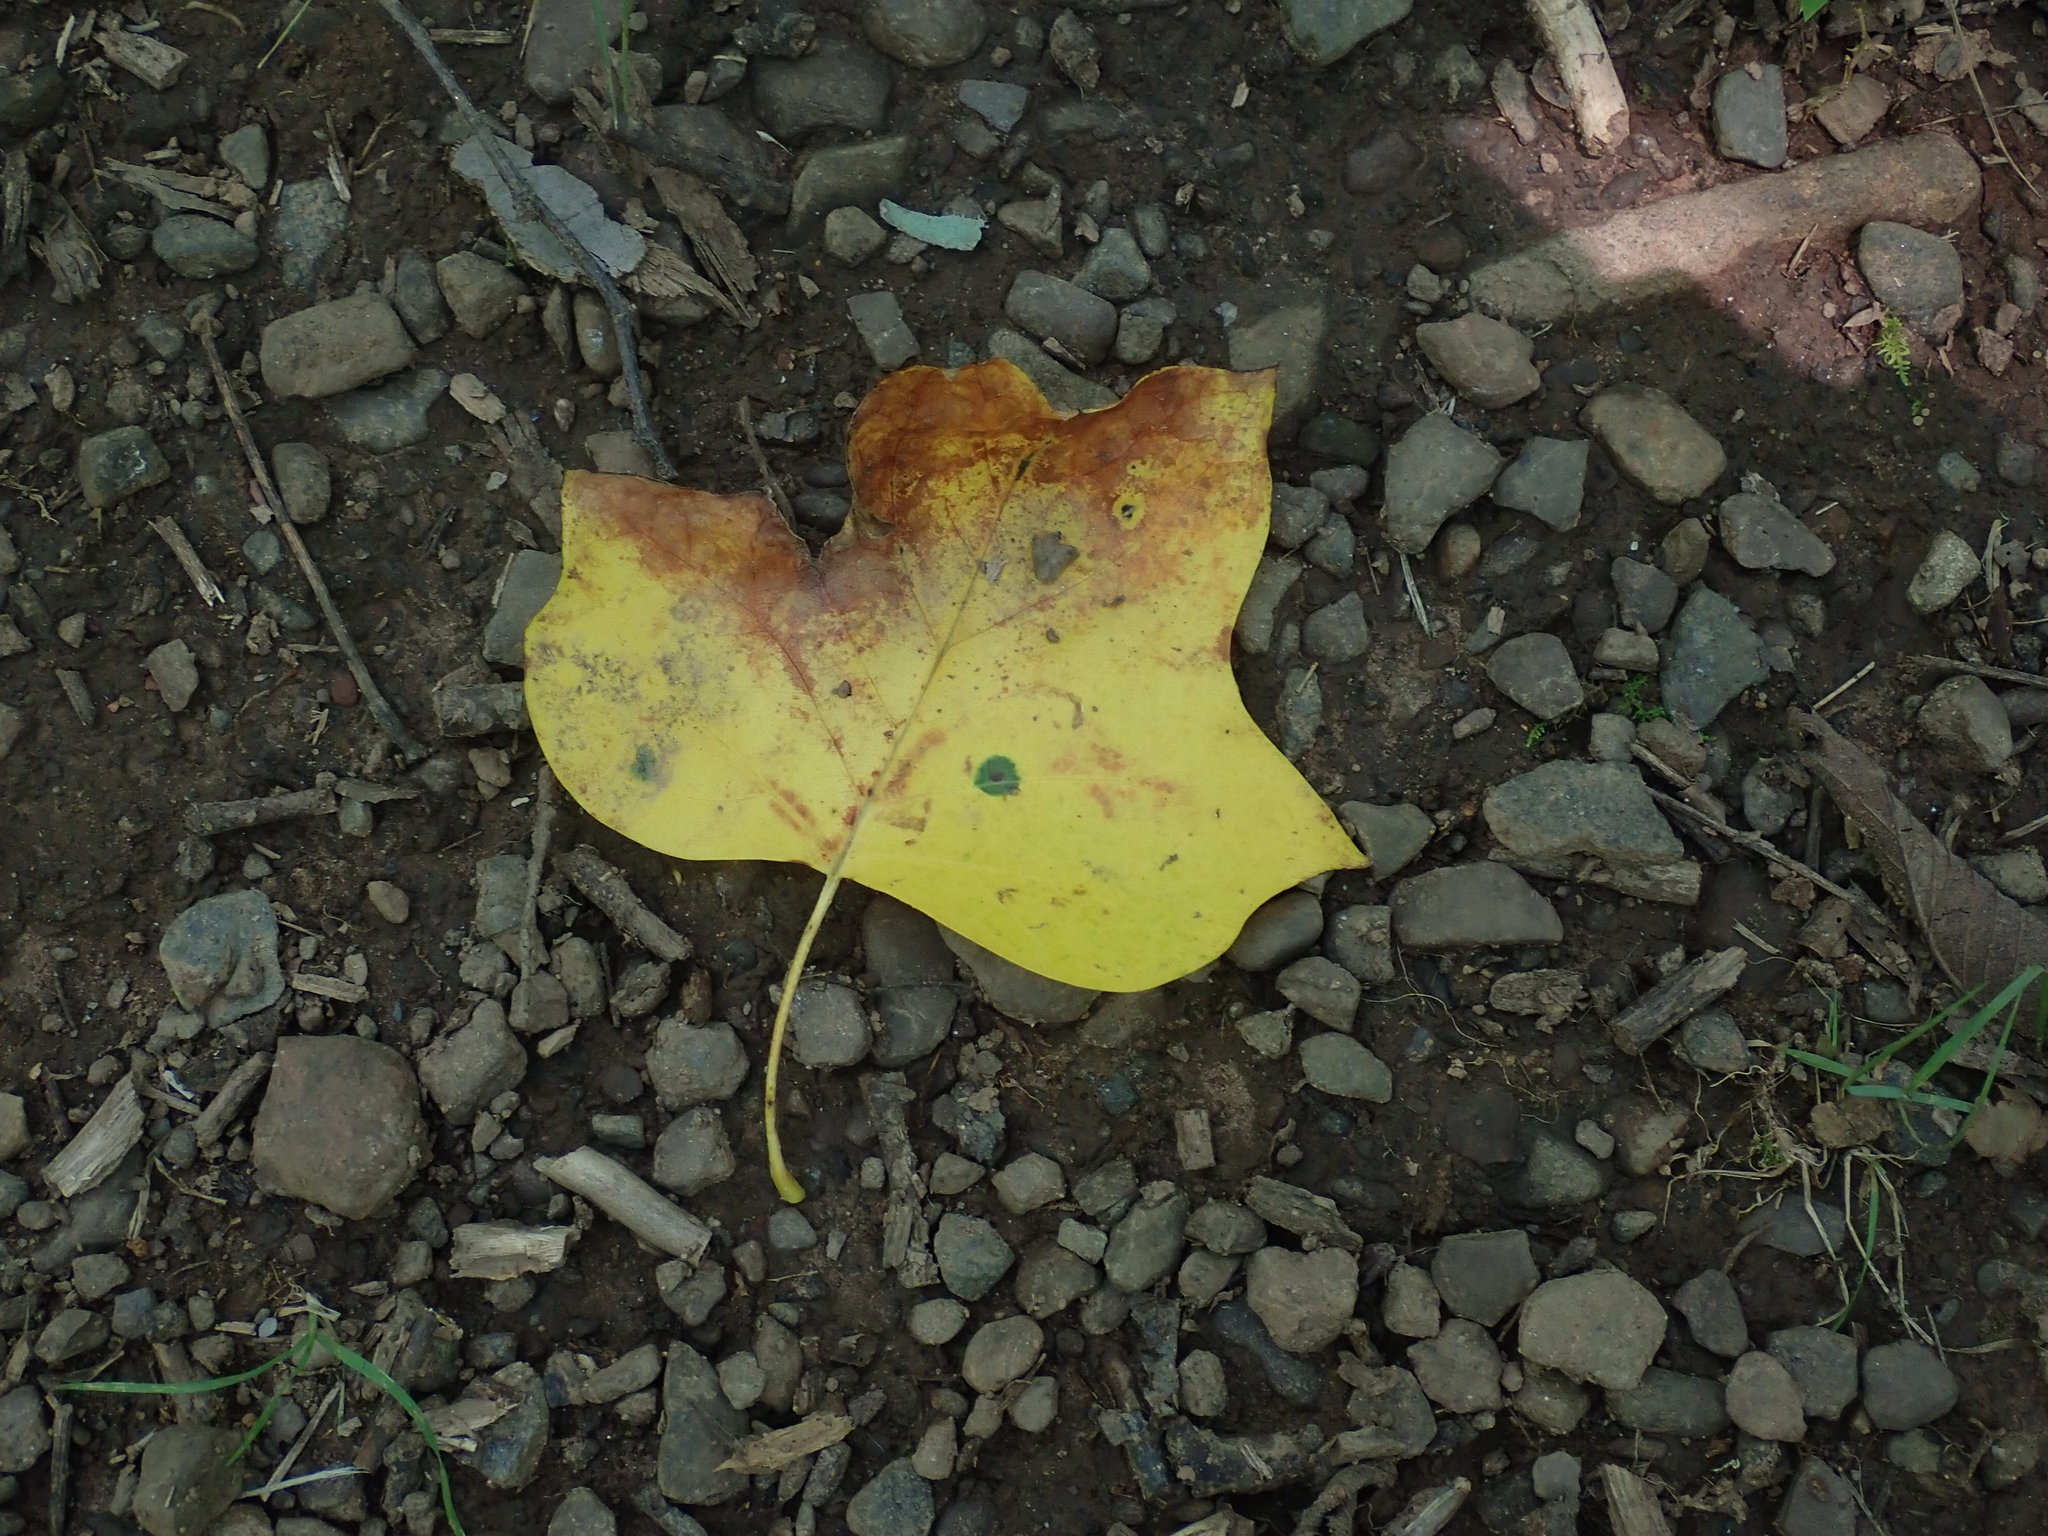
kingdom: Plantae
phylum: Tracheophyta
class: Magnoliopsida
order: Magnoliales
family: Magnoliaceae
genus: Liriodendron
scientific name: Liriodendron tulipifera
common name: Tulip tree
